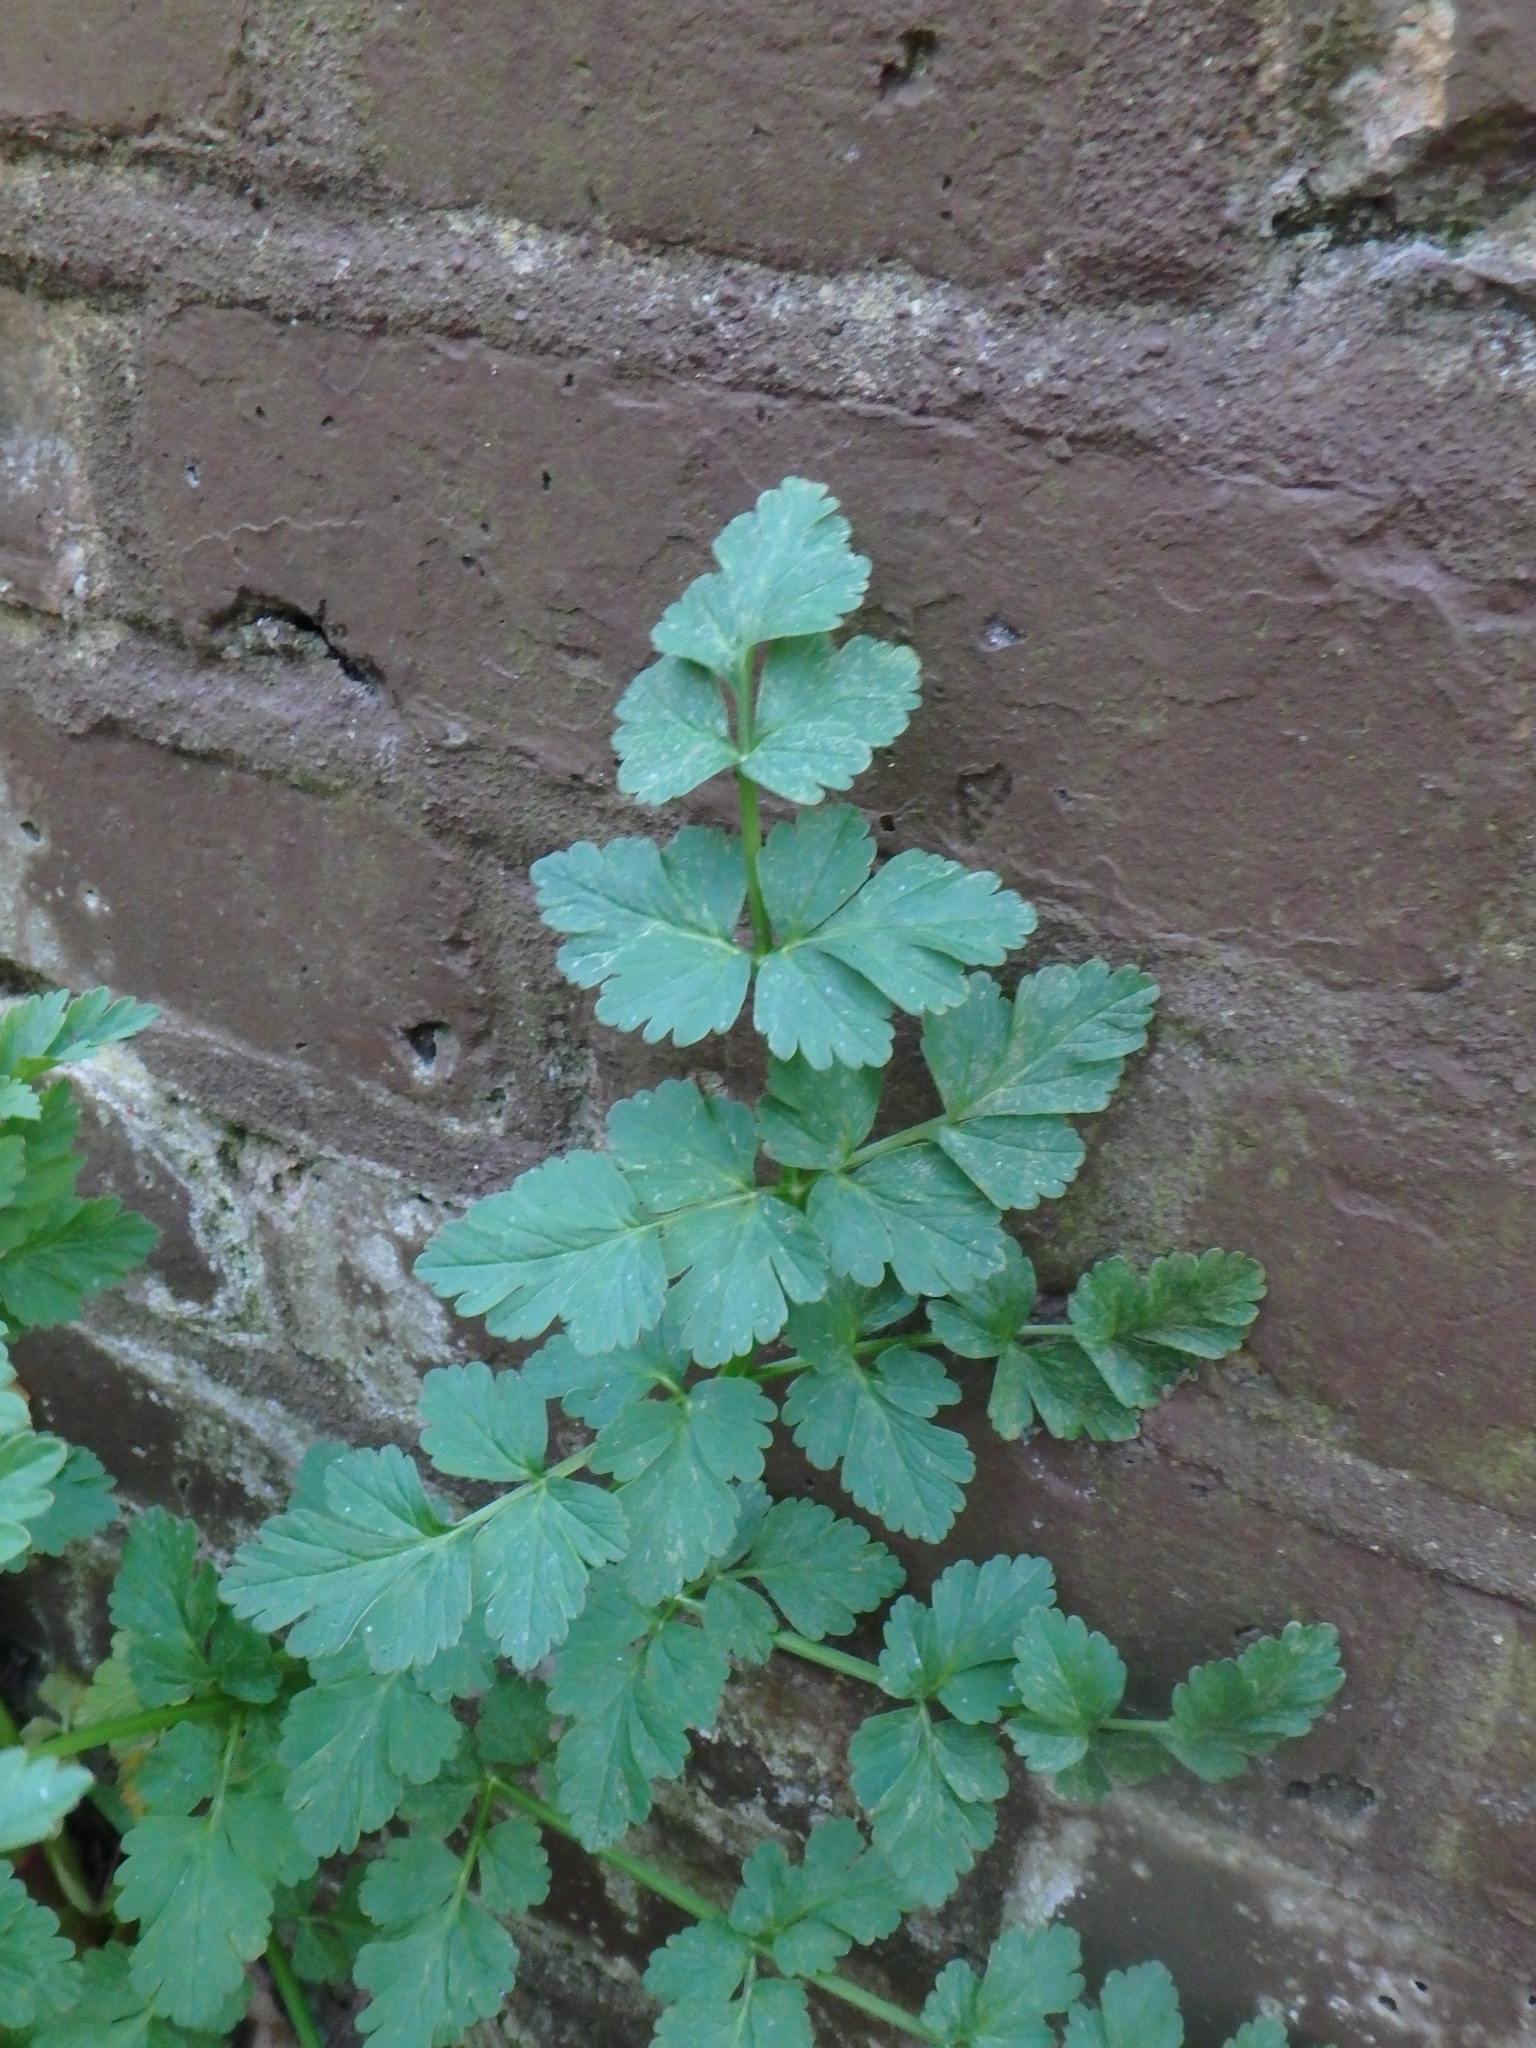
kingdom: Plantae
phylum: Tracheophyta
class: Magnoliopsida
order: Apiales
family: Apiaceae
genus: Oenanthe
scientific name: Oenanthe crocata
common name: Hemlock water-dropwort
